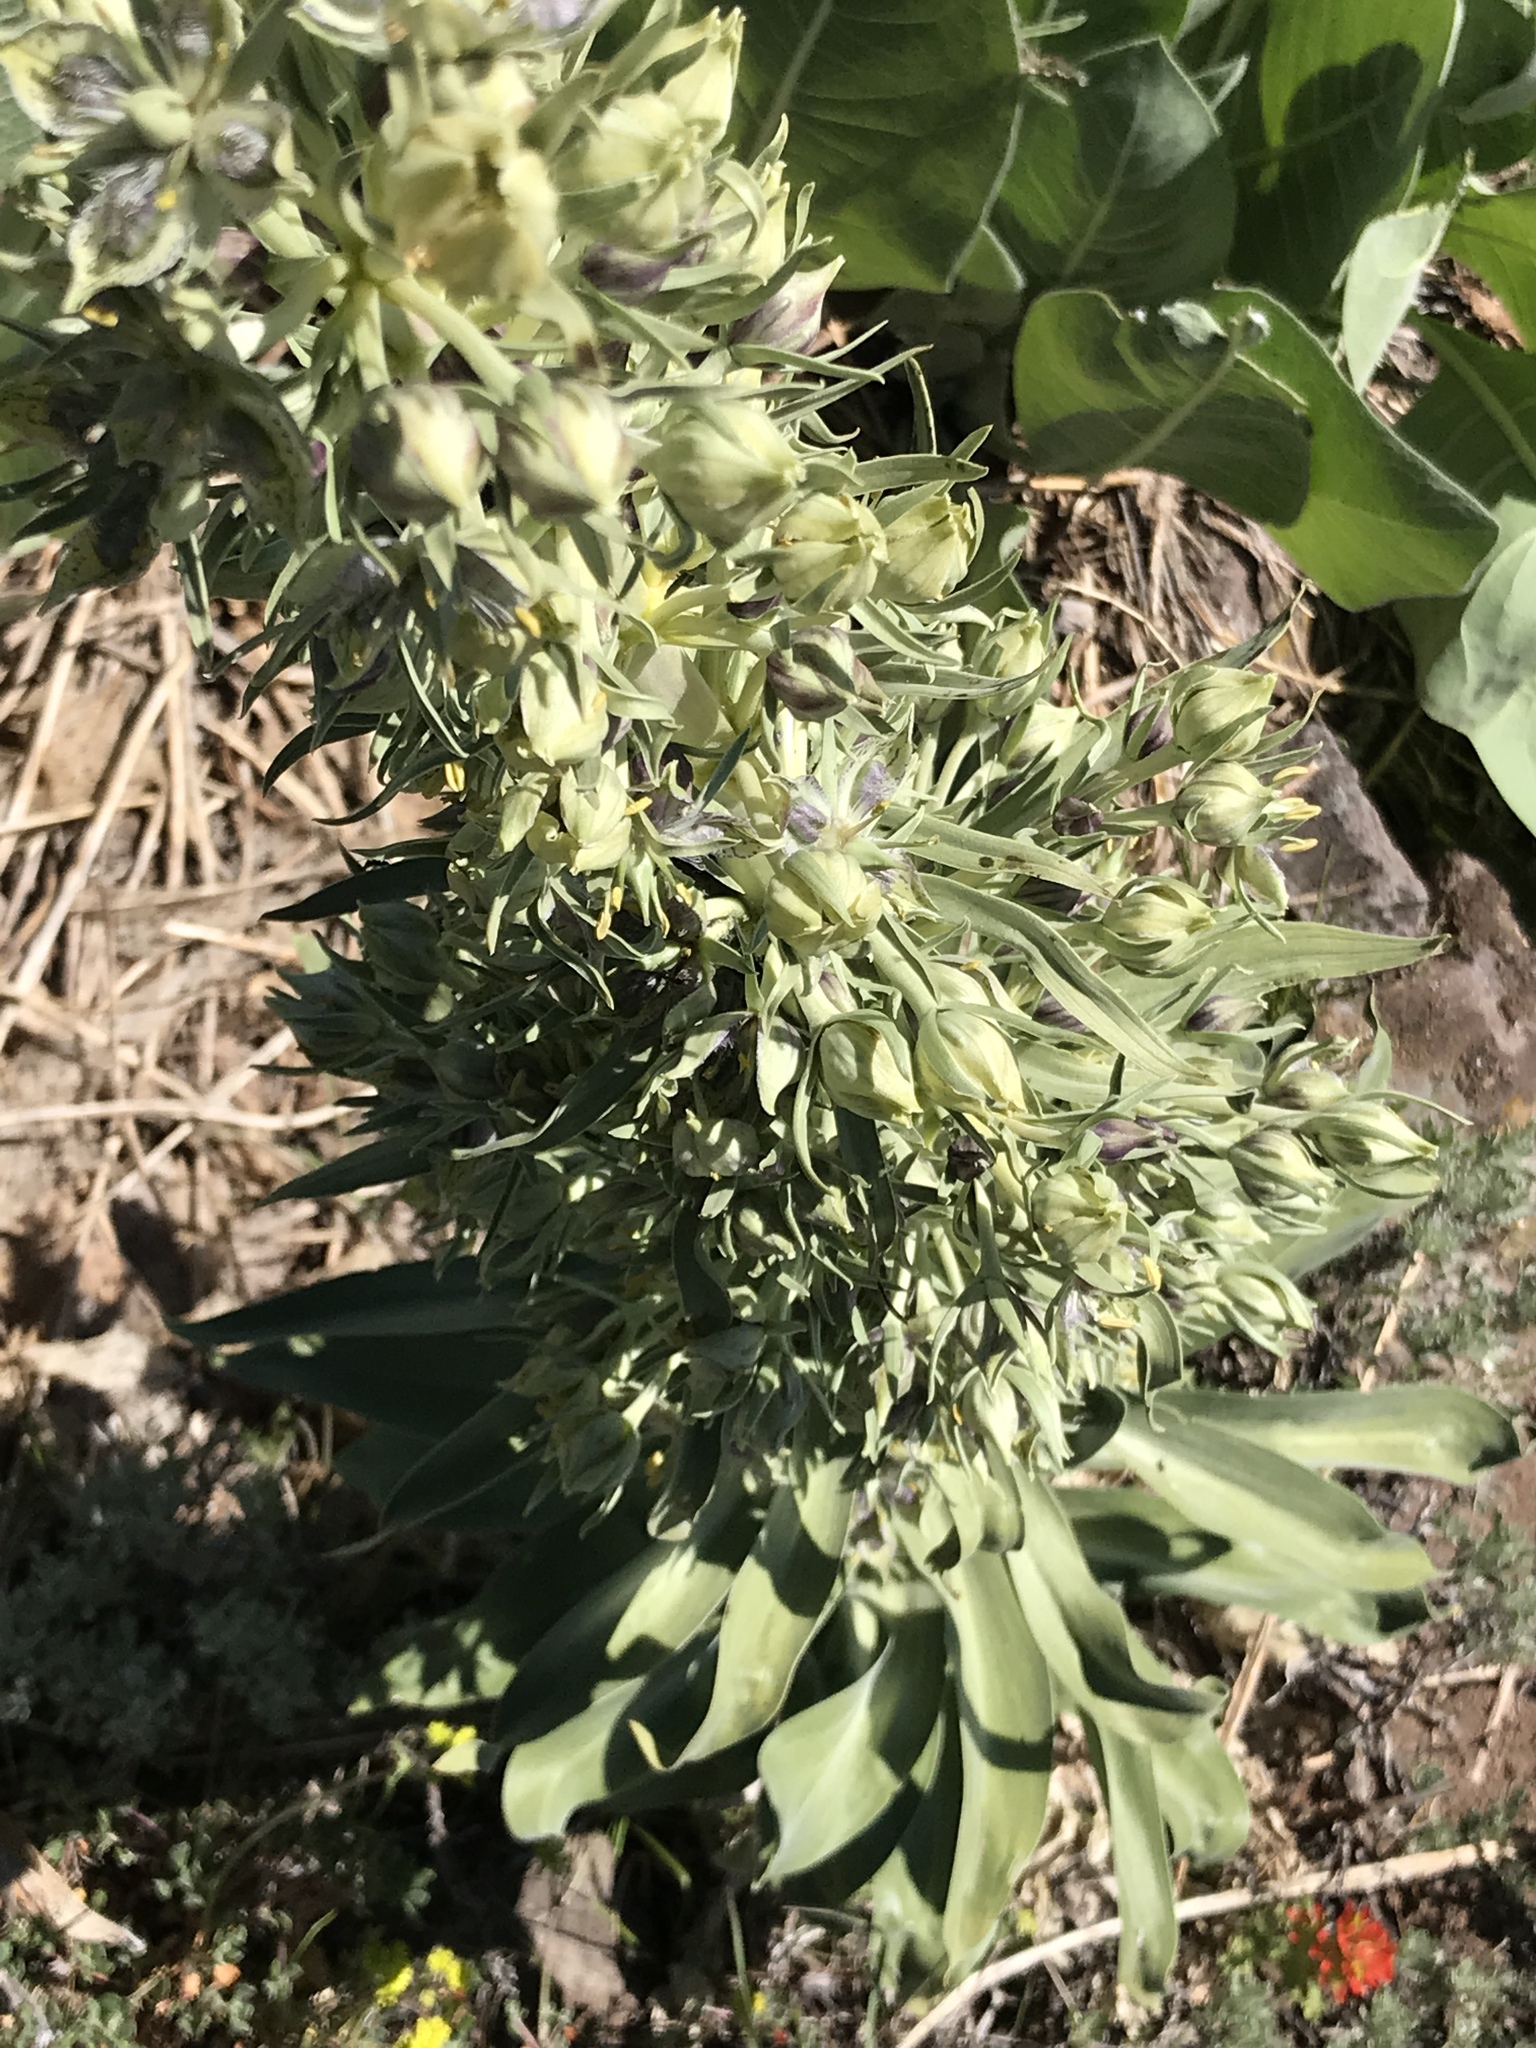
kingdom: Plantae
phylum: Tracheophyta
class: Magnoliopsida
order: Gentianales
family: Gentianaceae
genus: Frasera
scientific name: Frasera speciosa
